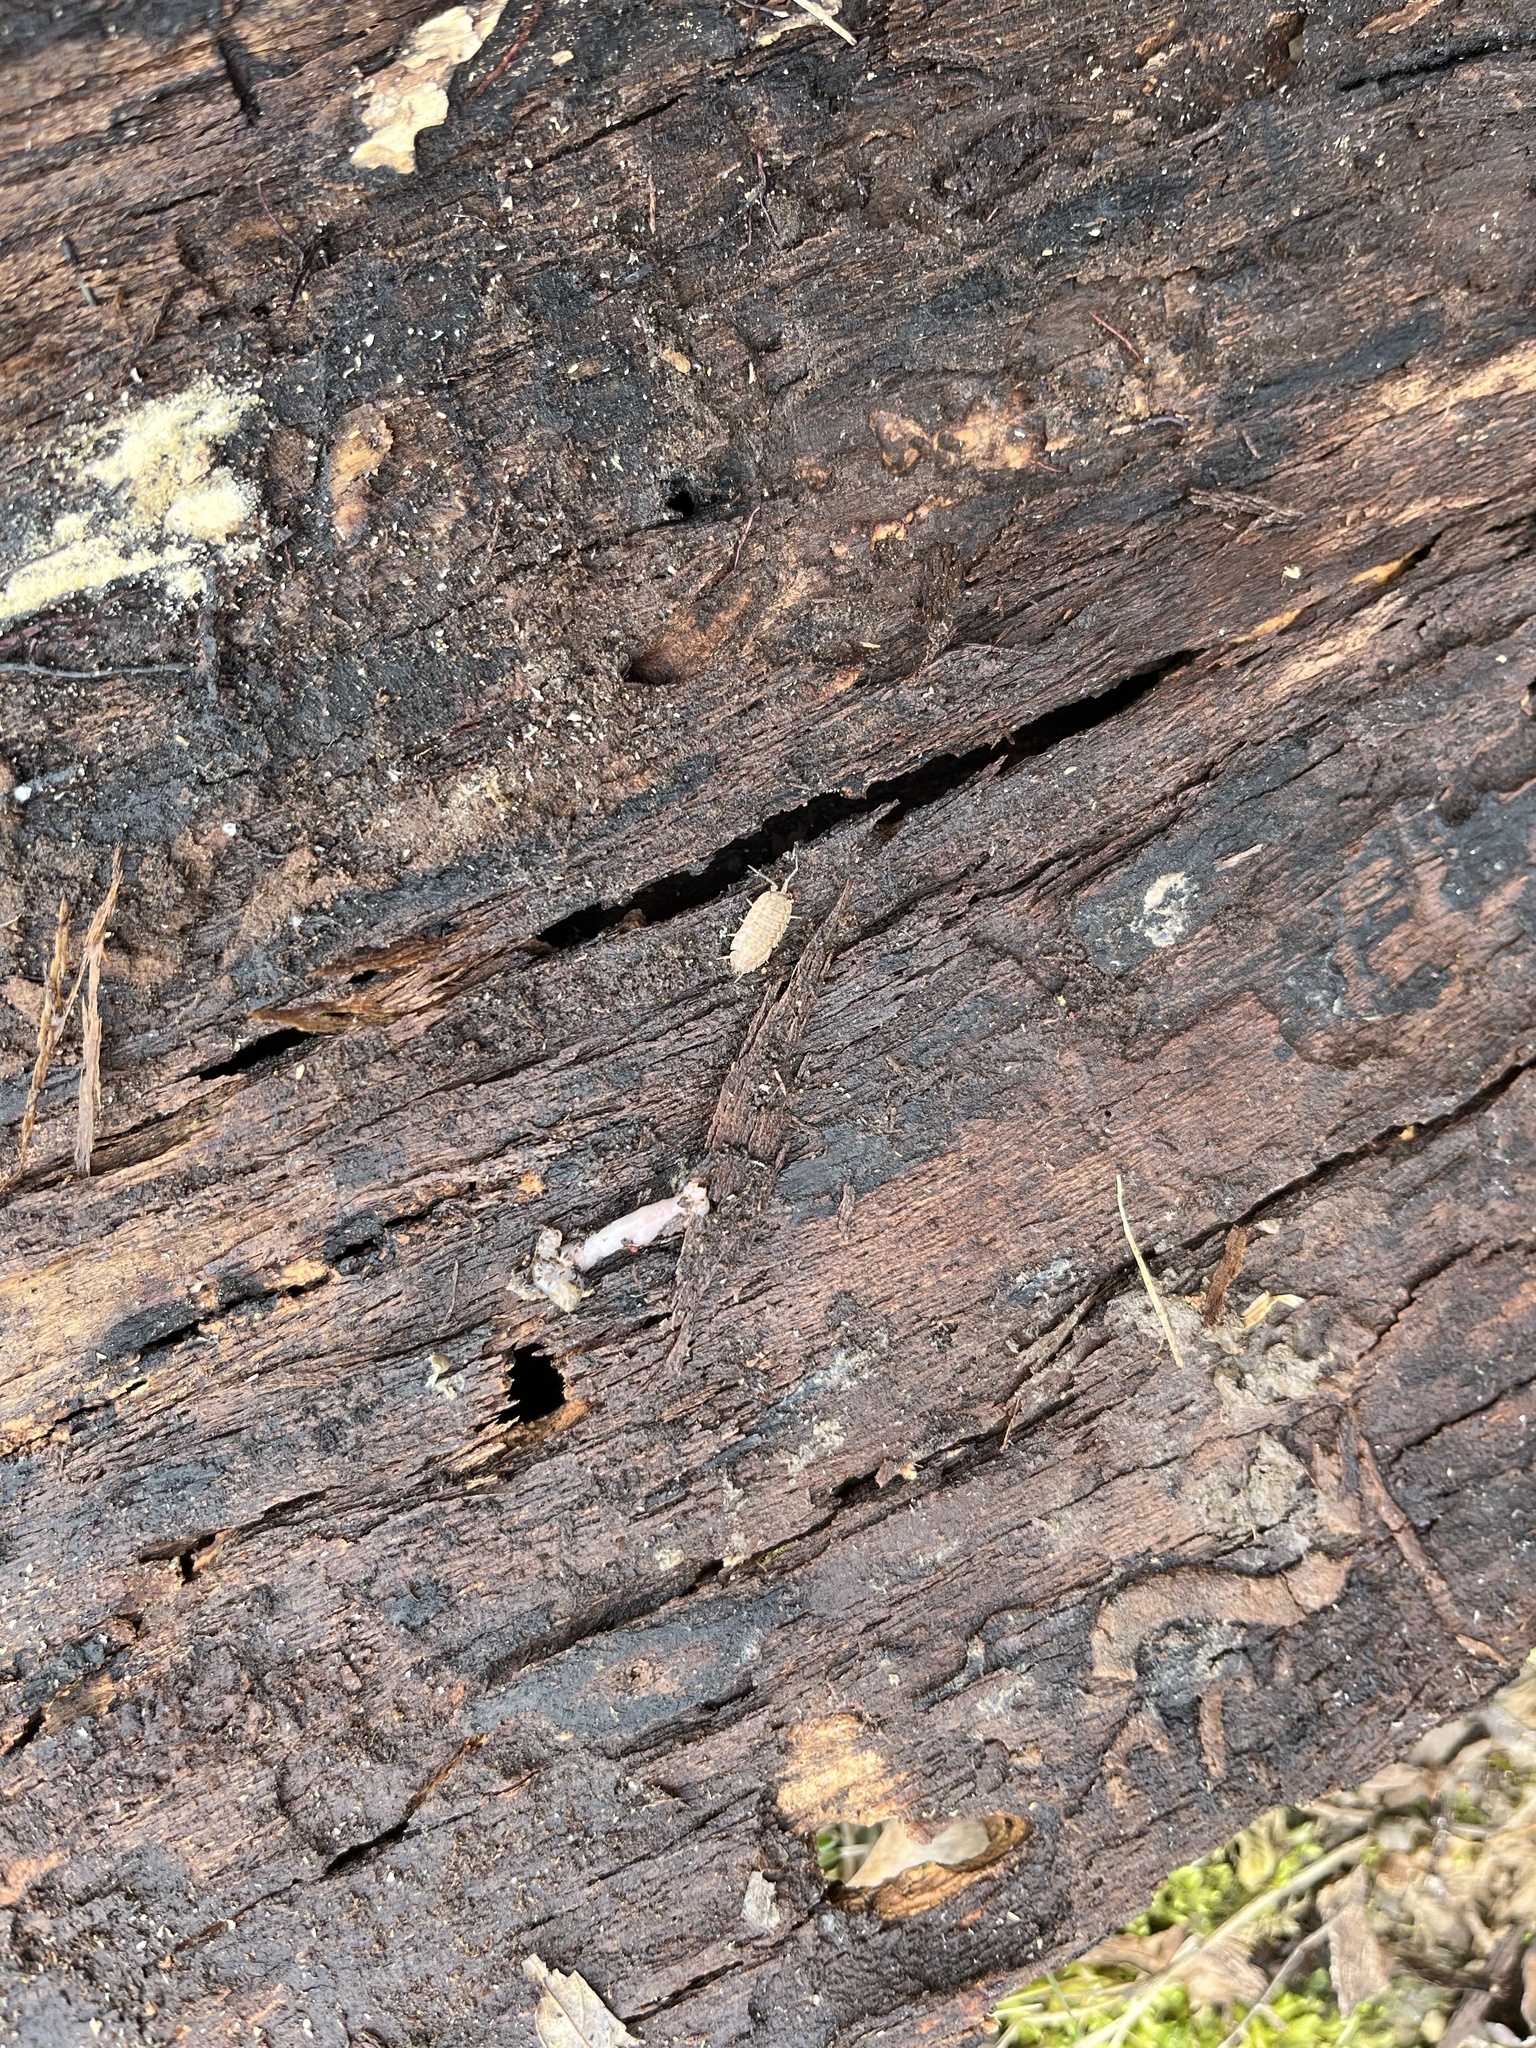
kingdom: Animalia
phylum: Arthropoda
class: Malacostraca
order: Isopoda
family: Trachelipodidae
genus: Trachelipus
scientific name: Trachelipus rathkii
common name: Isopod
